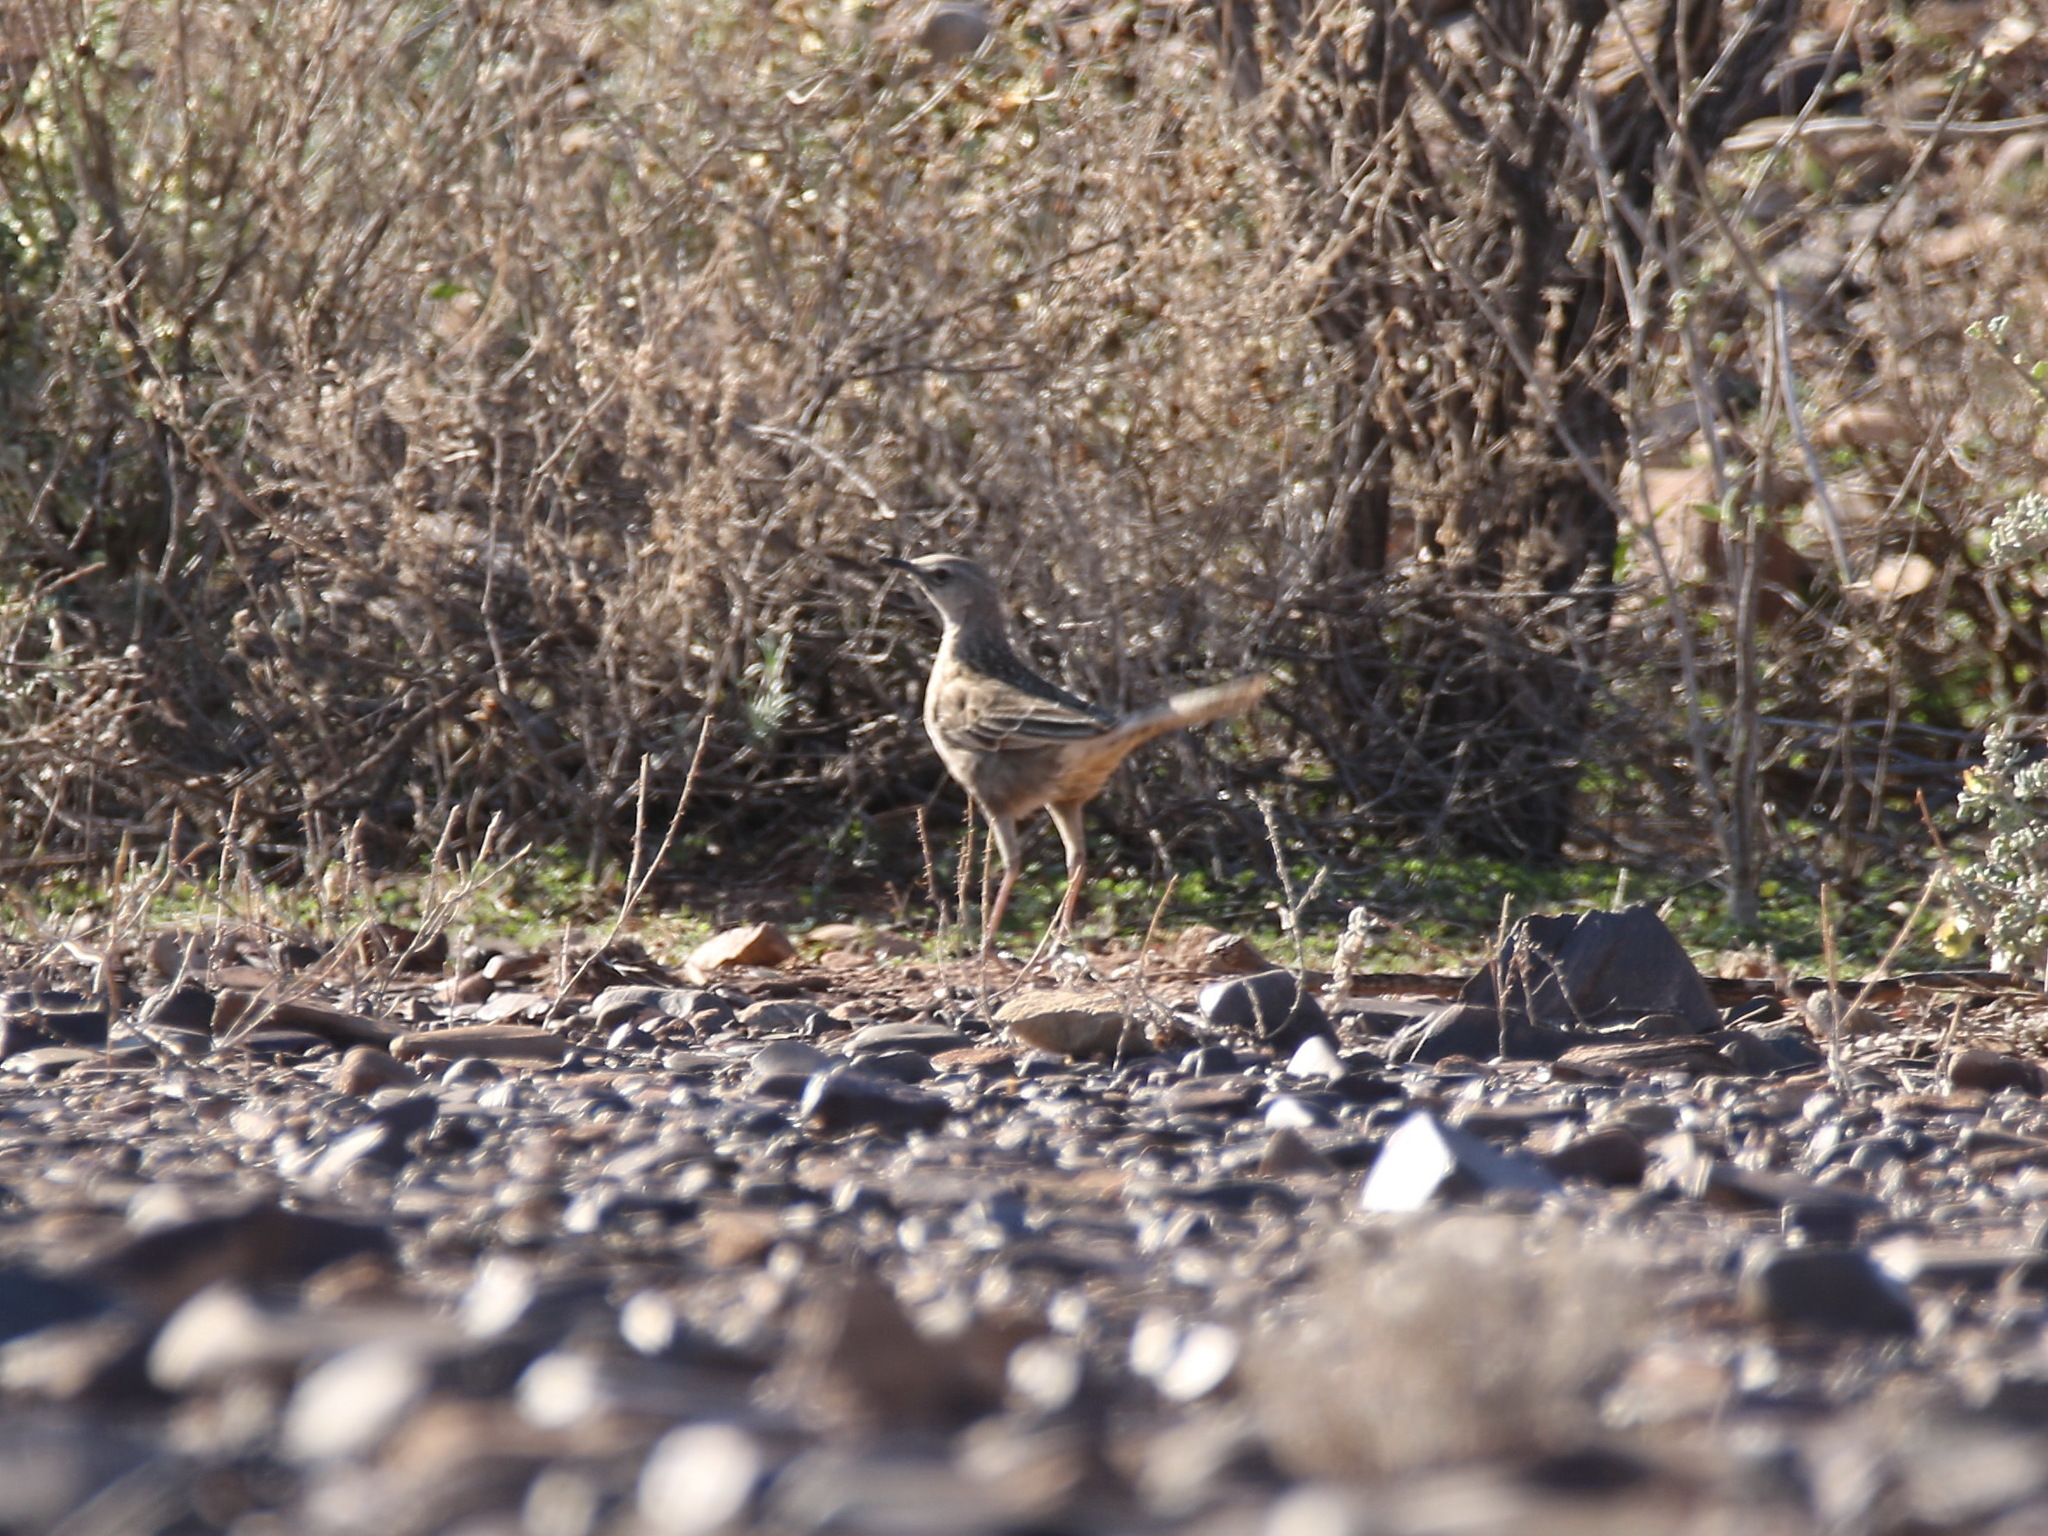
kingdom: Animalia
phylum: Chordata
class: Aves
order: Passeriformes
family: Locustellidae
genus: Megalurus
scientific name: Megalurus cruralis
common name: Brown songlark
